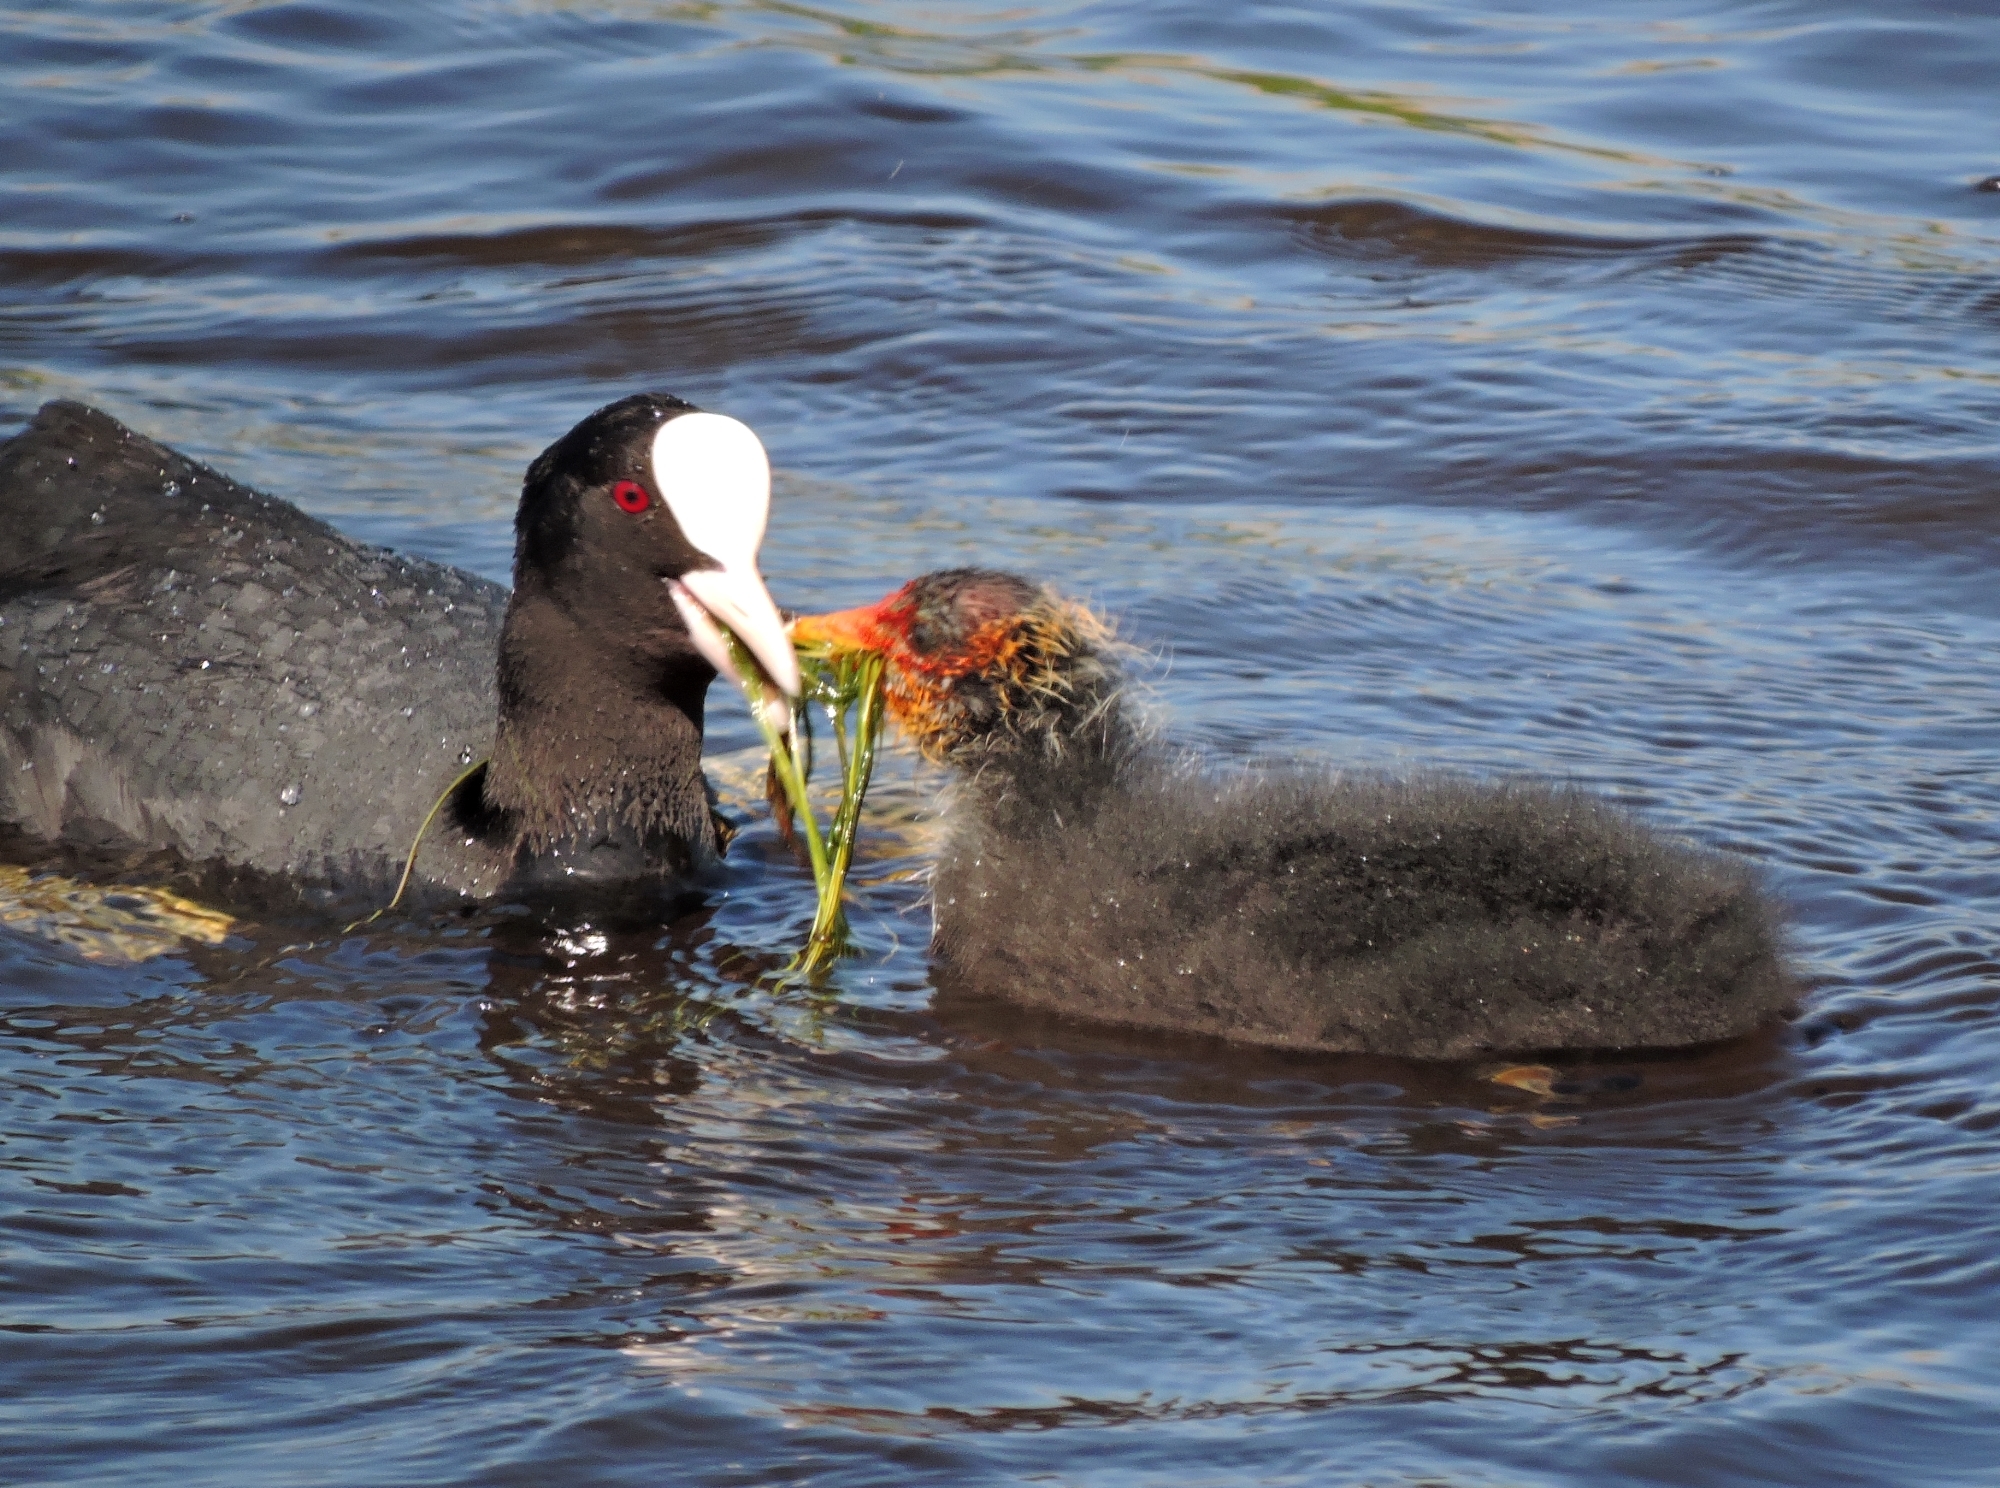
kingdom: Animalia
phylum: Chordata
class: Aves
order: Gruiformes
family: Rallidae
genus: Fulica
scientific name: Fulica atra
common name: Eurasian coot
